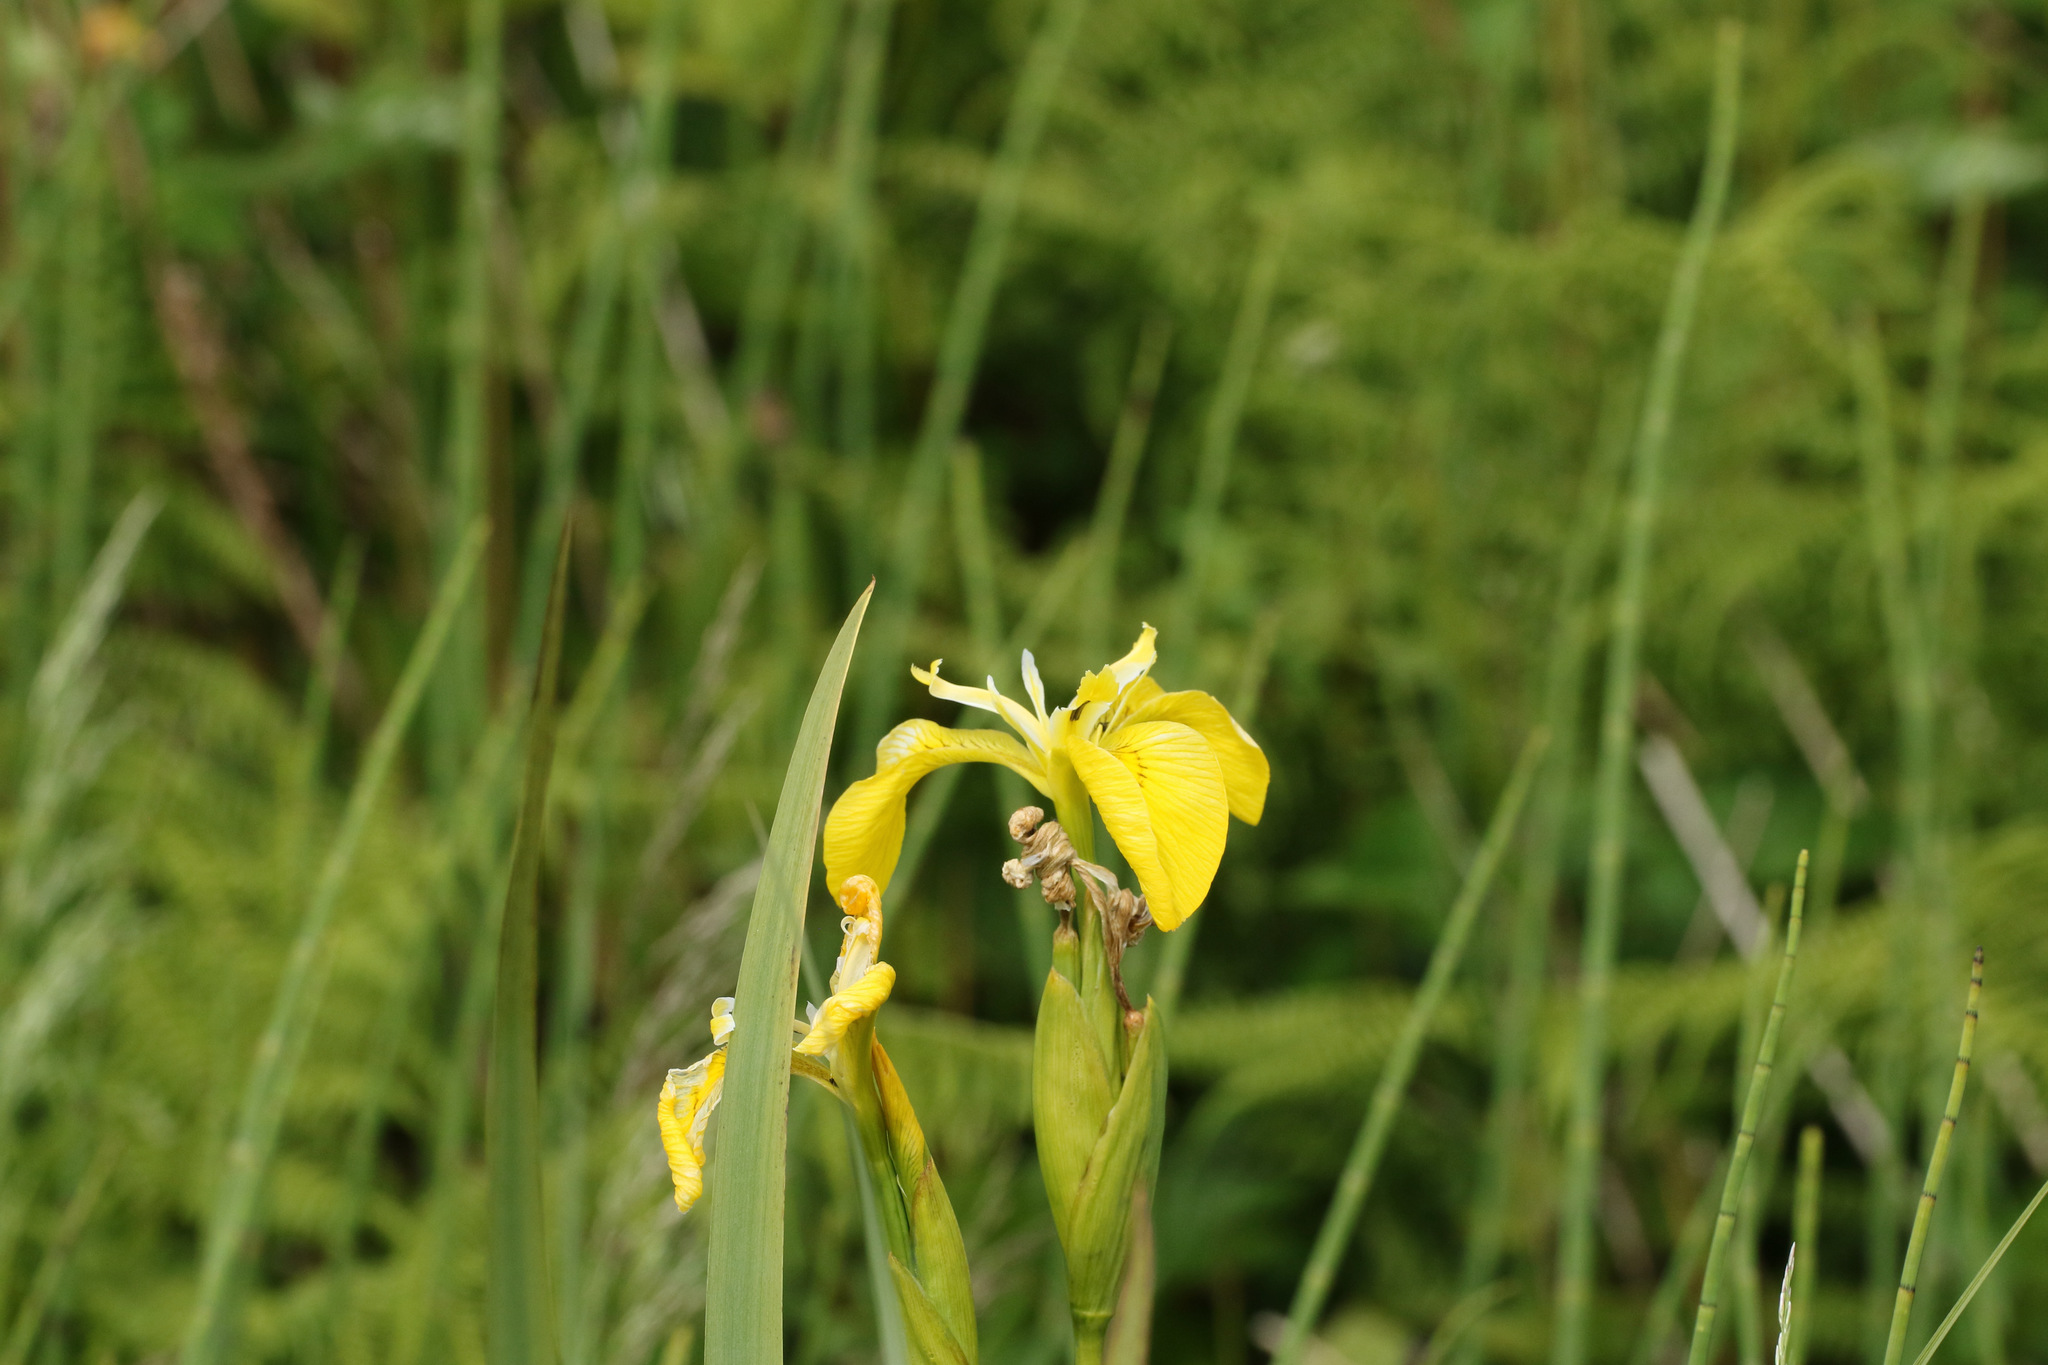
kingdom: Plantae
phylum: Tracheophyta
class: Liliopsida
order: Asparagales
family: Iridaceae
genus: Iris
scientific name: Iris pseudacorus
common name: Yellow flag
